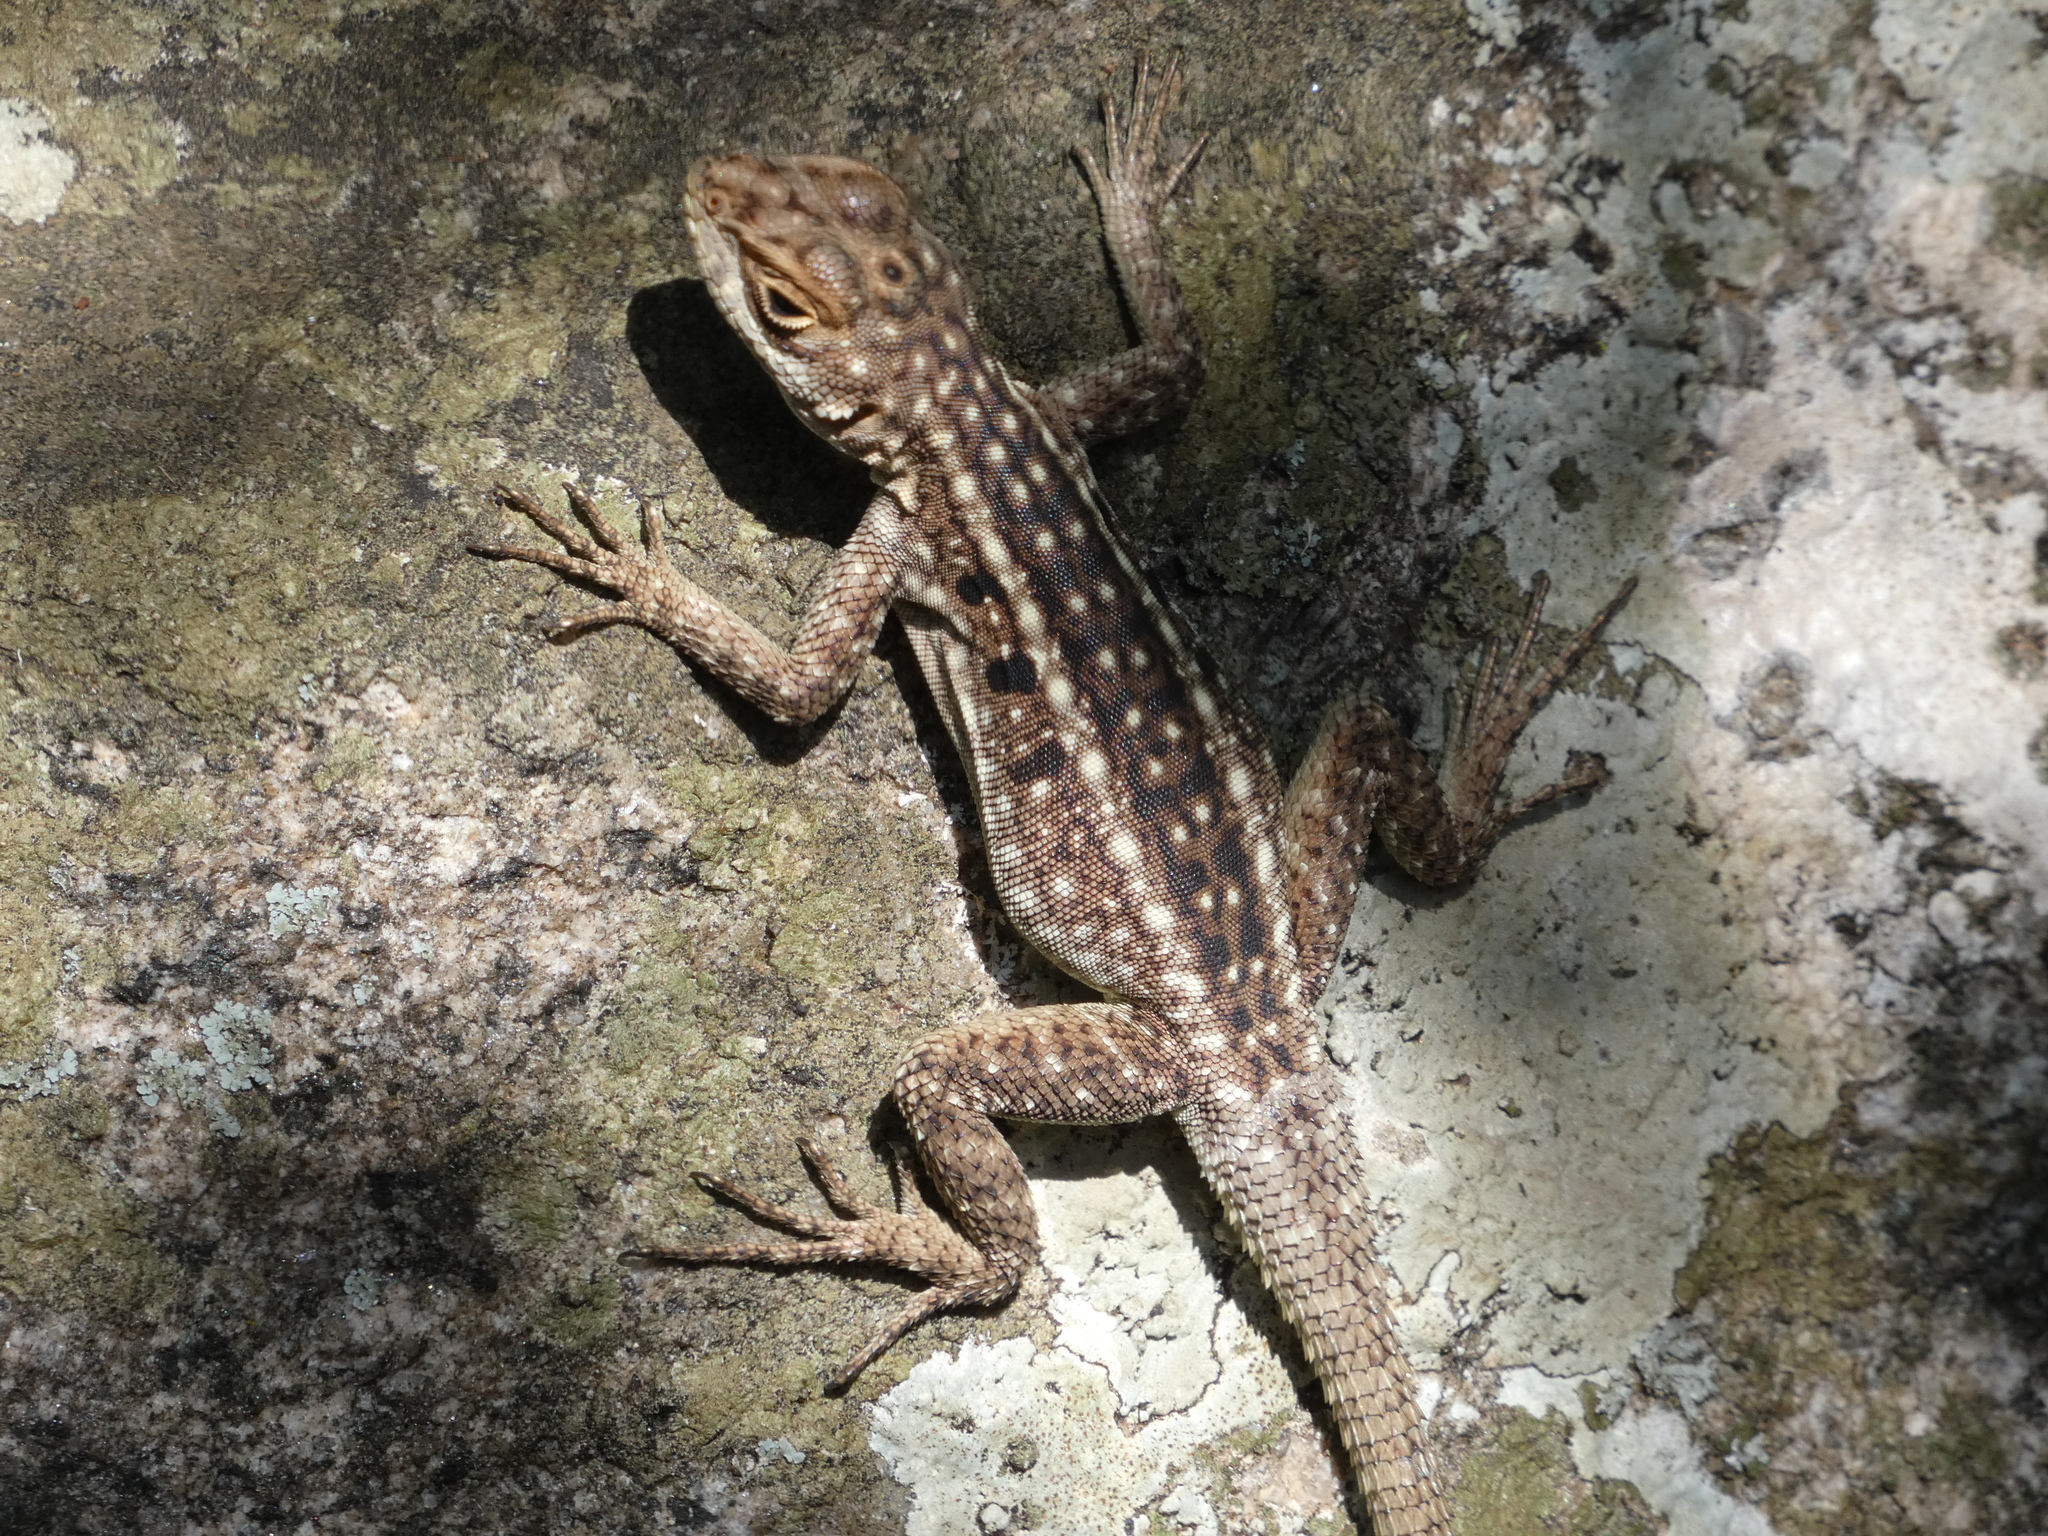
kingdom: Animalia
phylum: Chordata
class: Squamata
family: Opluridae
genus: Oplurus
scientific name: Oplurus quadrimaculatus
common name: Duméril's madagascar swift
